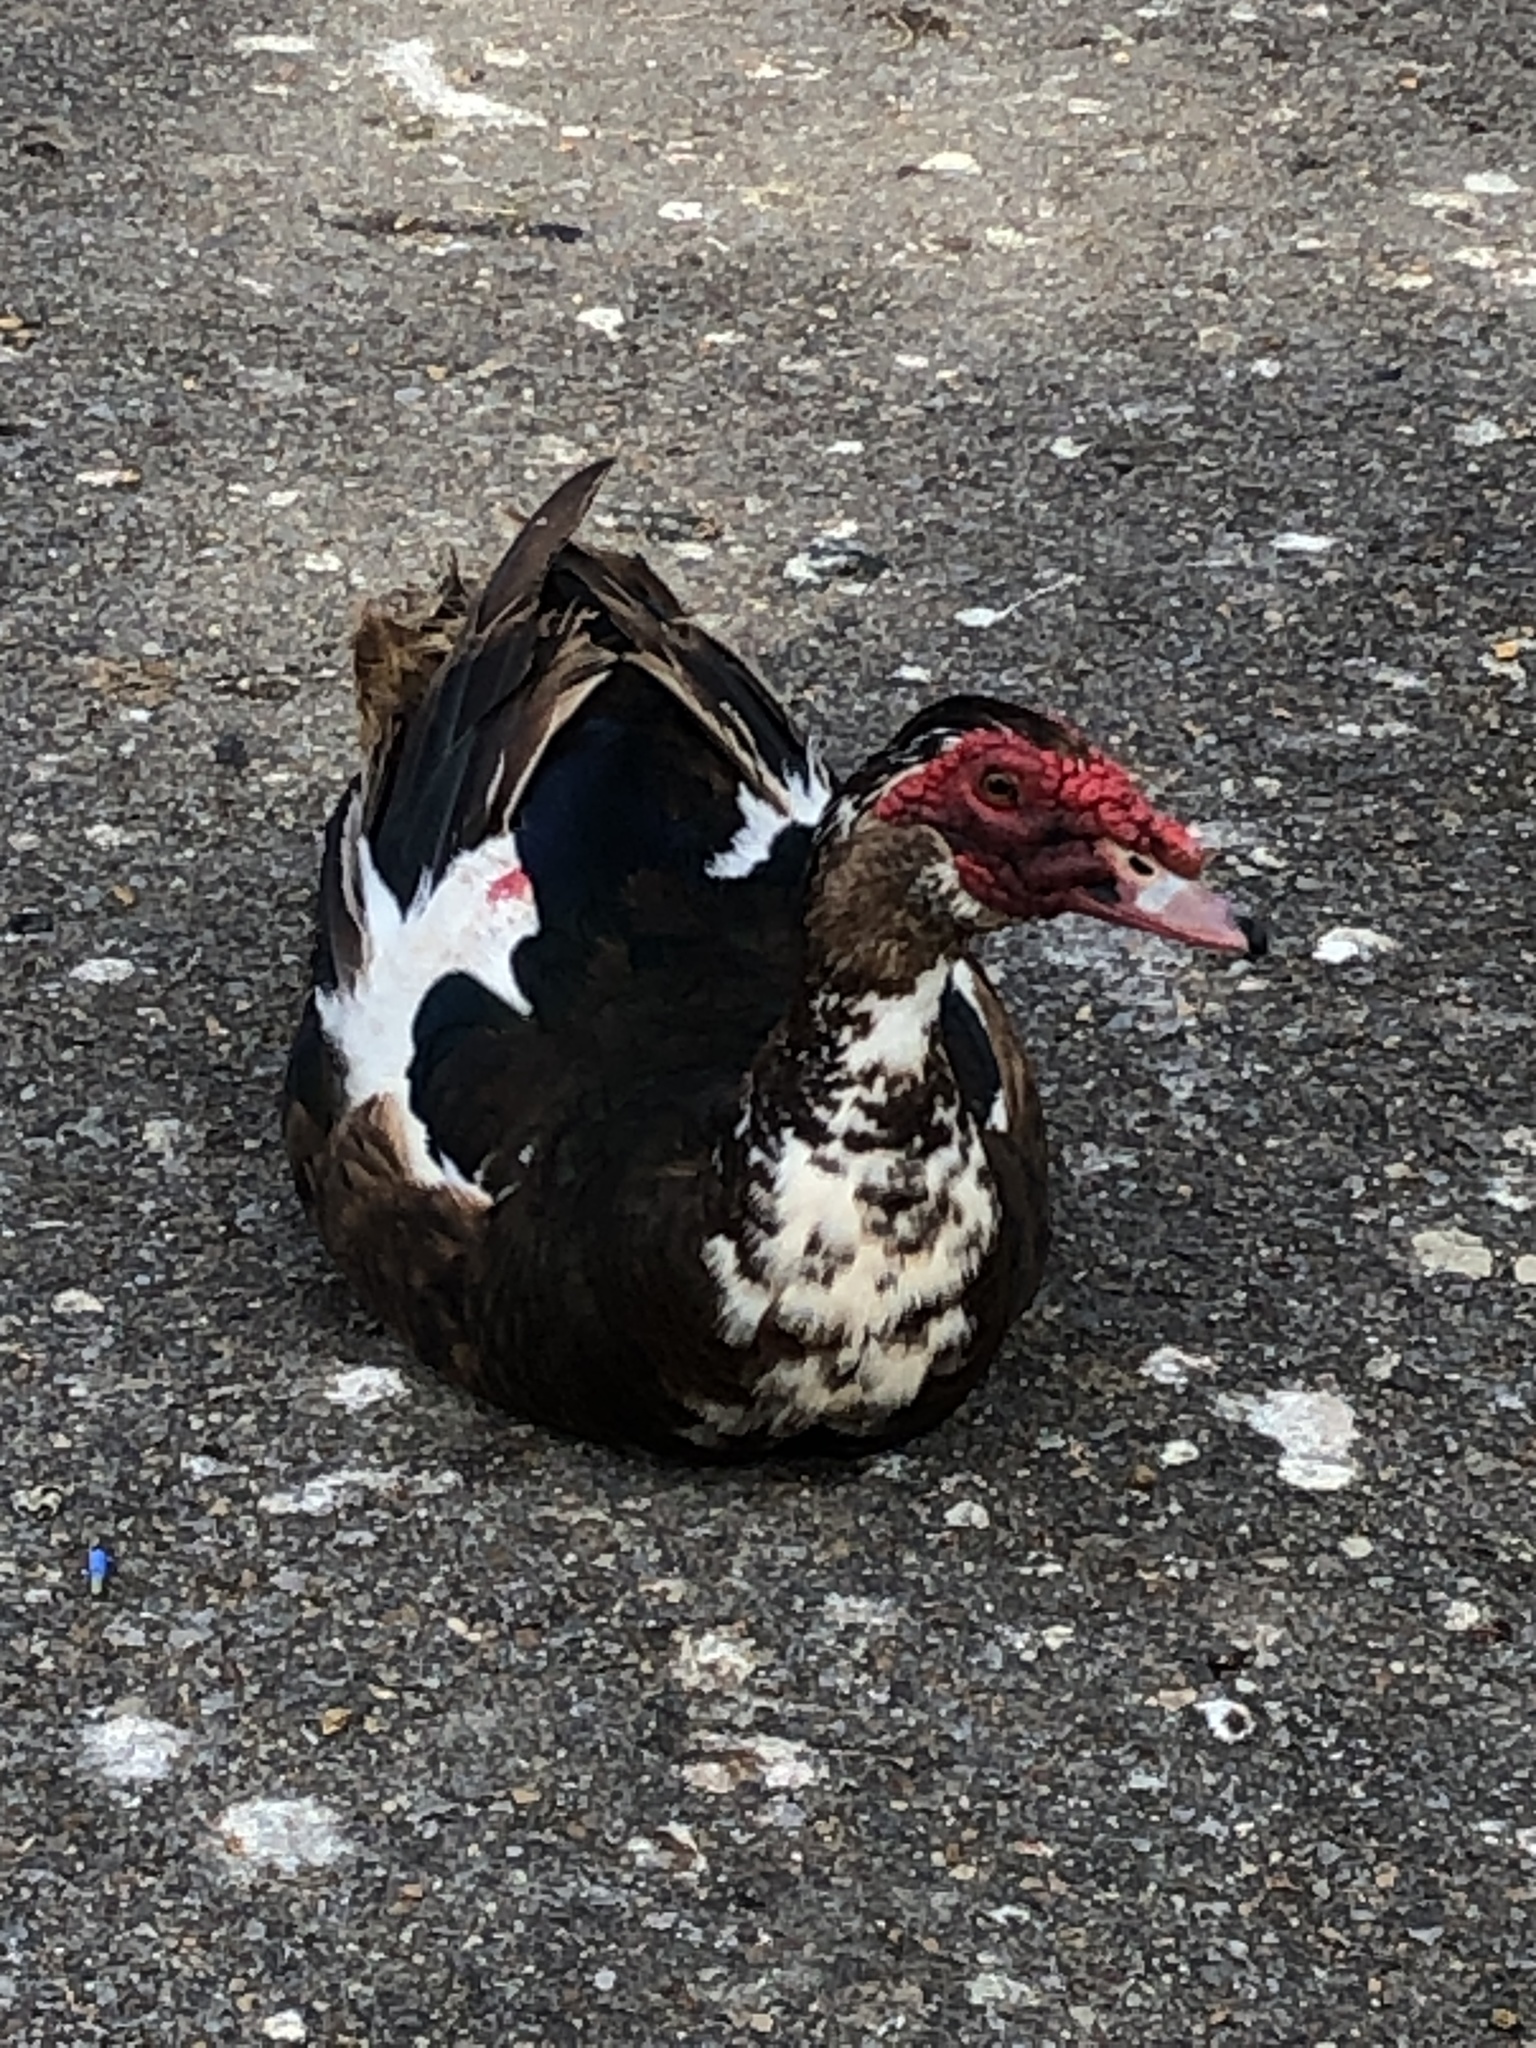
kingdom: Animalia
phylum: Chordata
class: Aves
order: Anseriformes
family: Anatidae
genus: Cairina
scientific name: Cairina moschata
